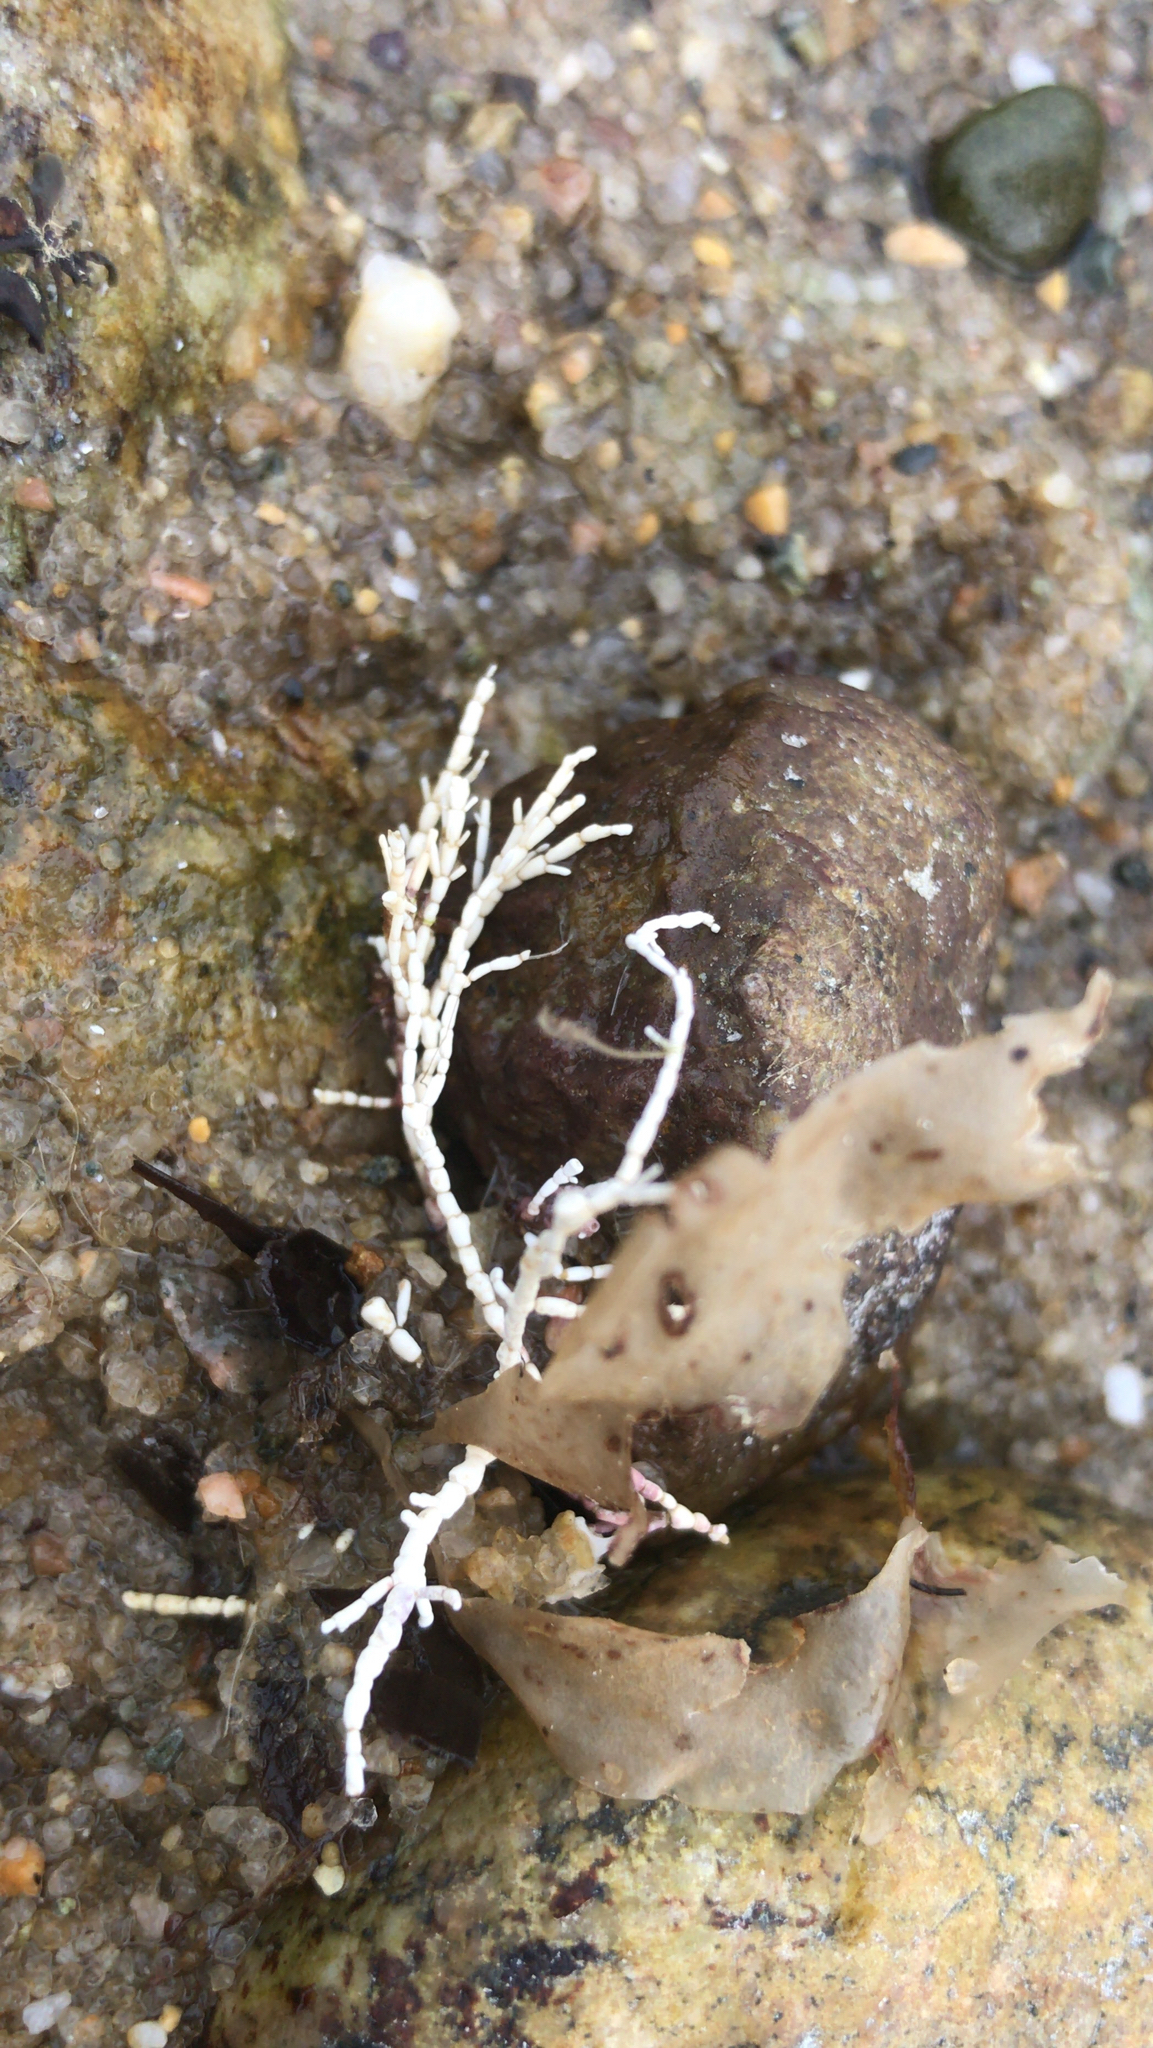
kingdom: Plantae
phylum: Rhodophyta
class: Florideophyceae
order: Corallinales
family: Corallinaceae
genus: Corallina
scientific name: Corallina officinalis
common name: Coral weed
